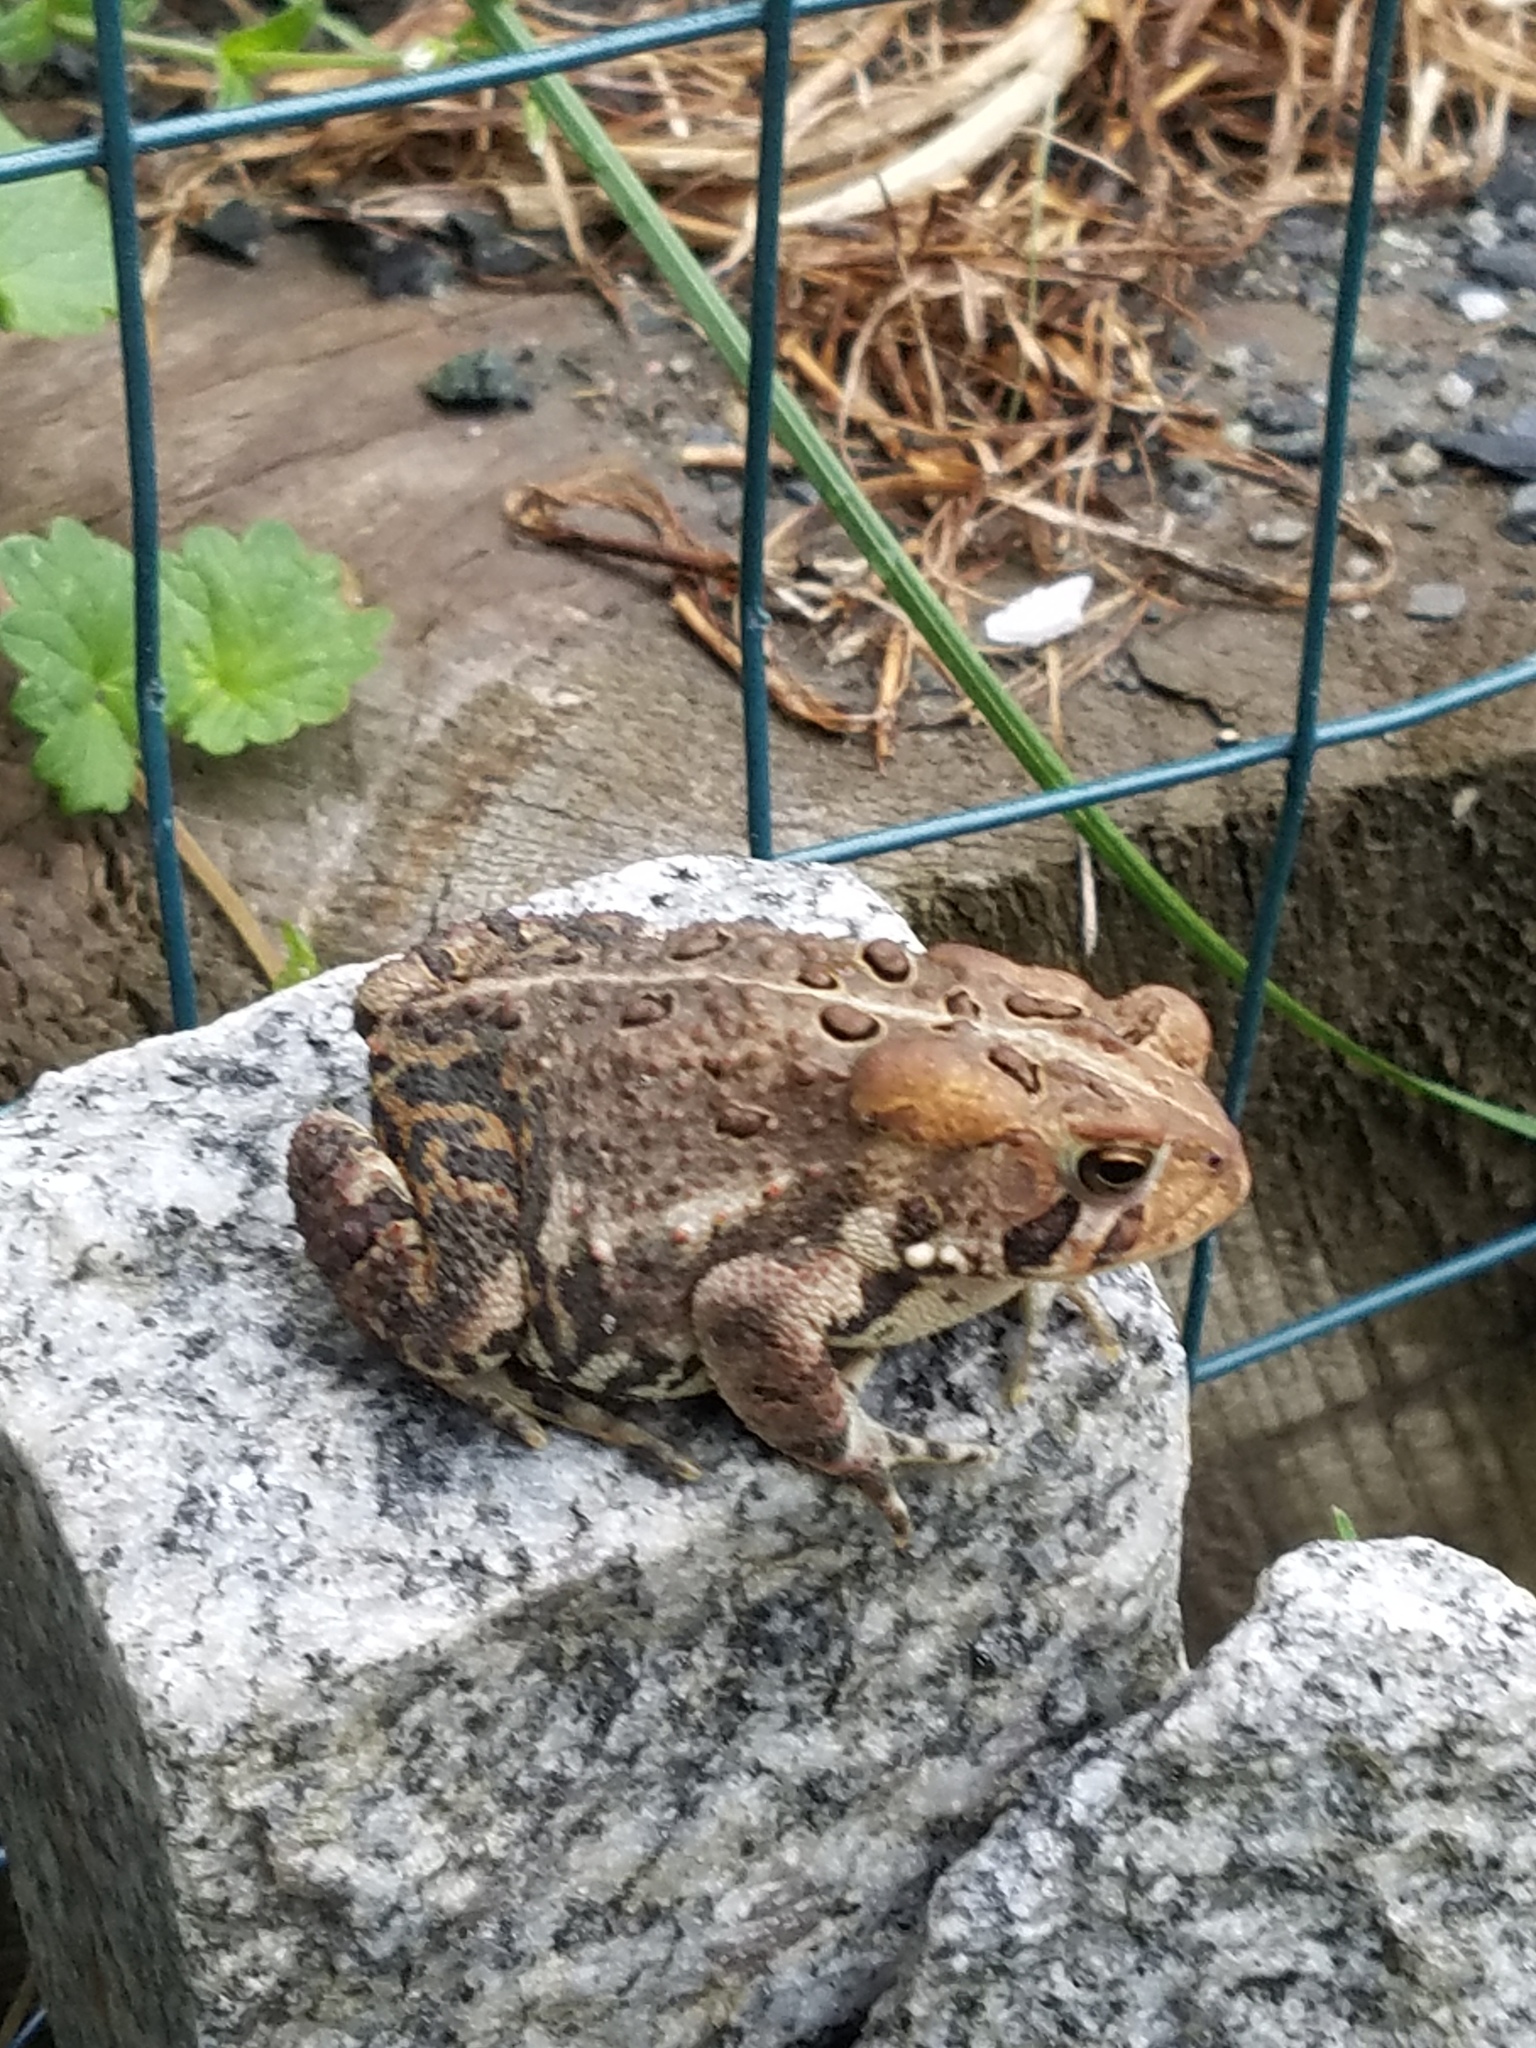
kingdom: Animalia
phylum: Chordata
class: Amphibia
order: Anura
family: Bufonidae
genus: Anaxyrus
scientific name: Anaxyrus americanus
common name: American toad
